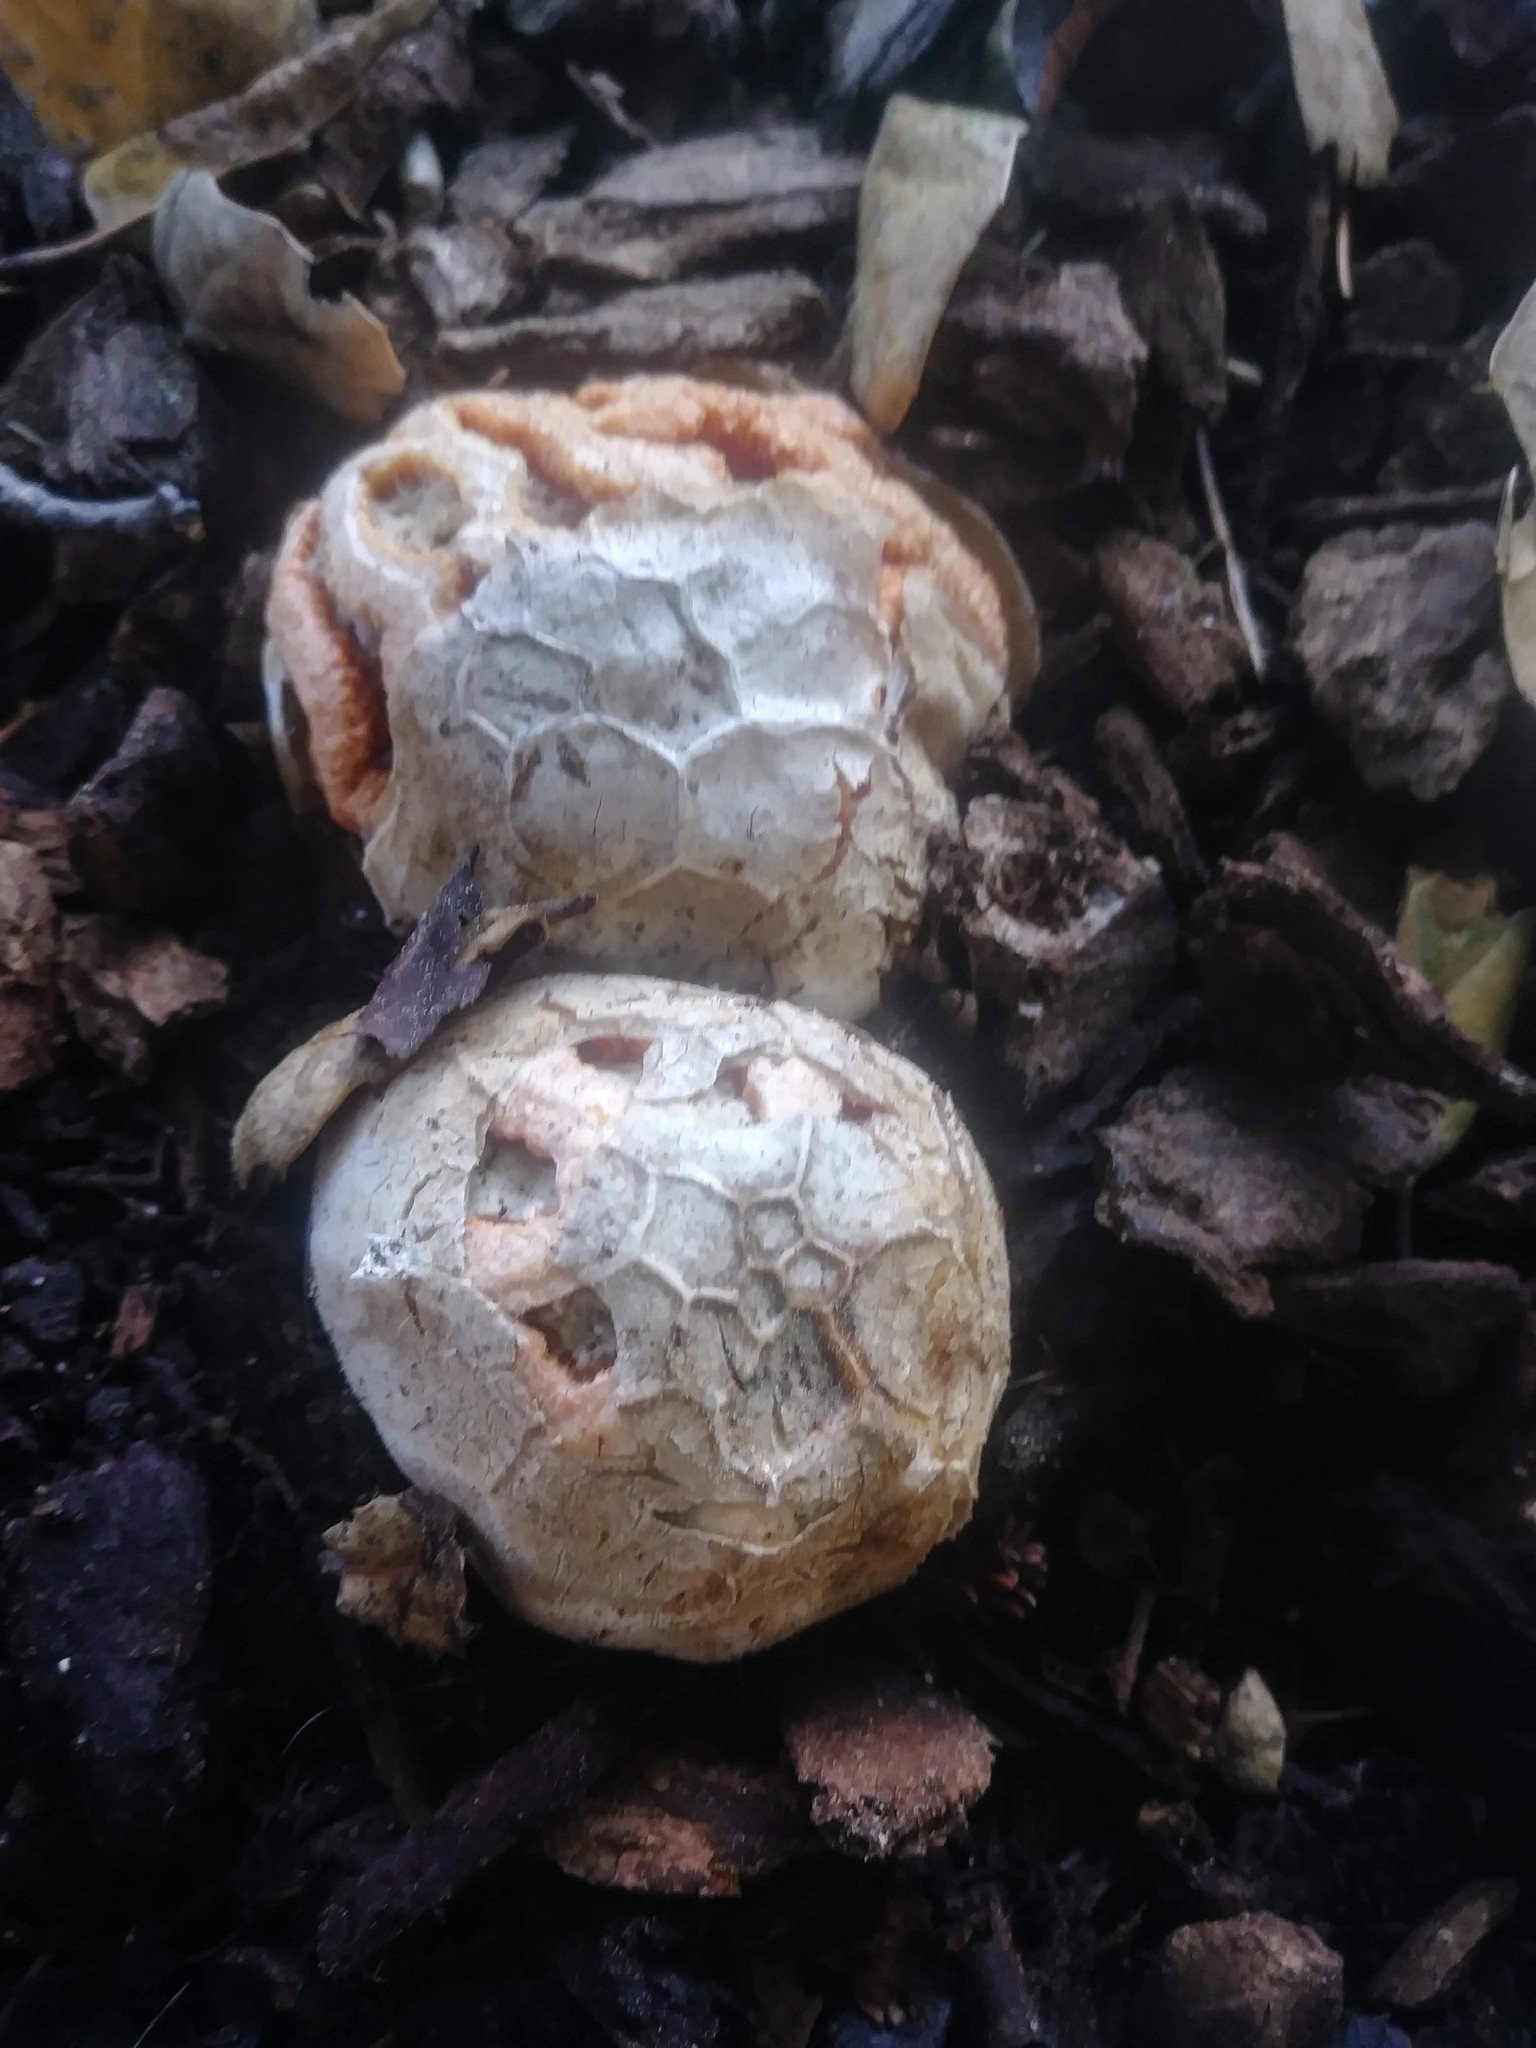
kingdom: Fungi
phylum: Basidiomycota
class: Agaricomycetes
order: Phallales
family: Phallaceae
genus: Clathrus
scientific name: Clathrus ruber
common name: Red cage
